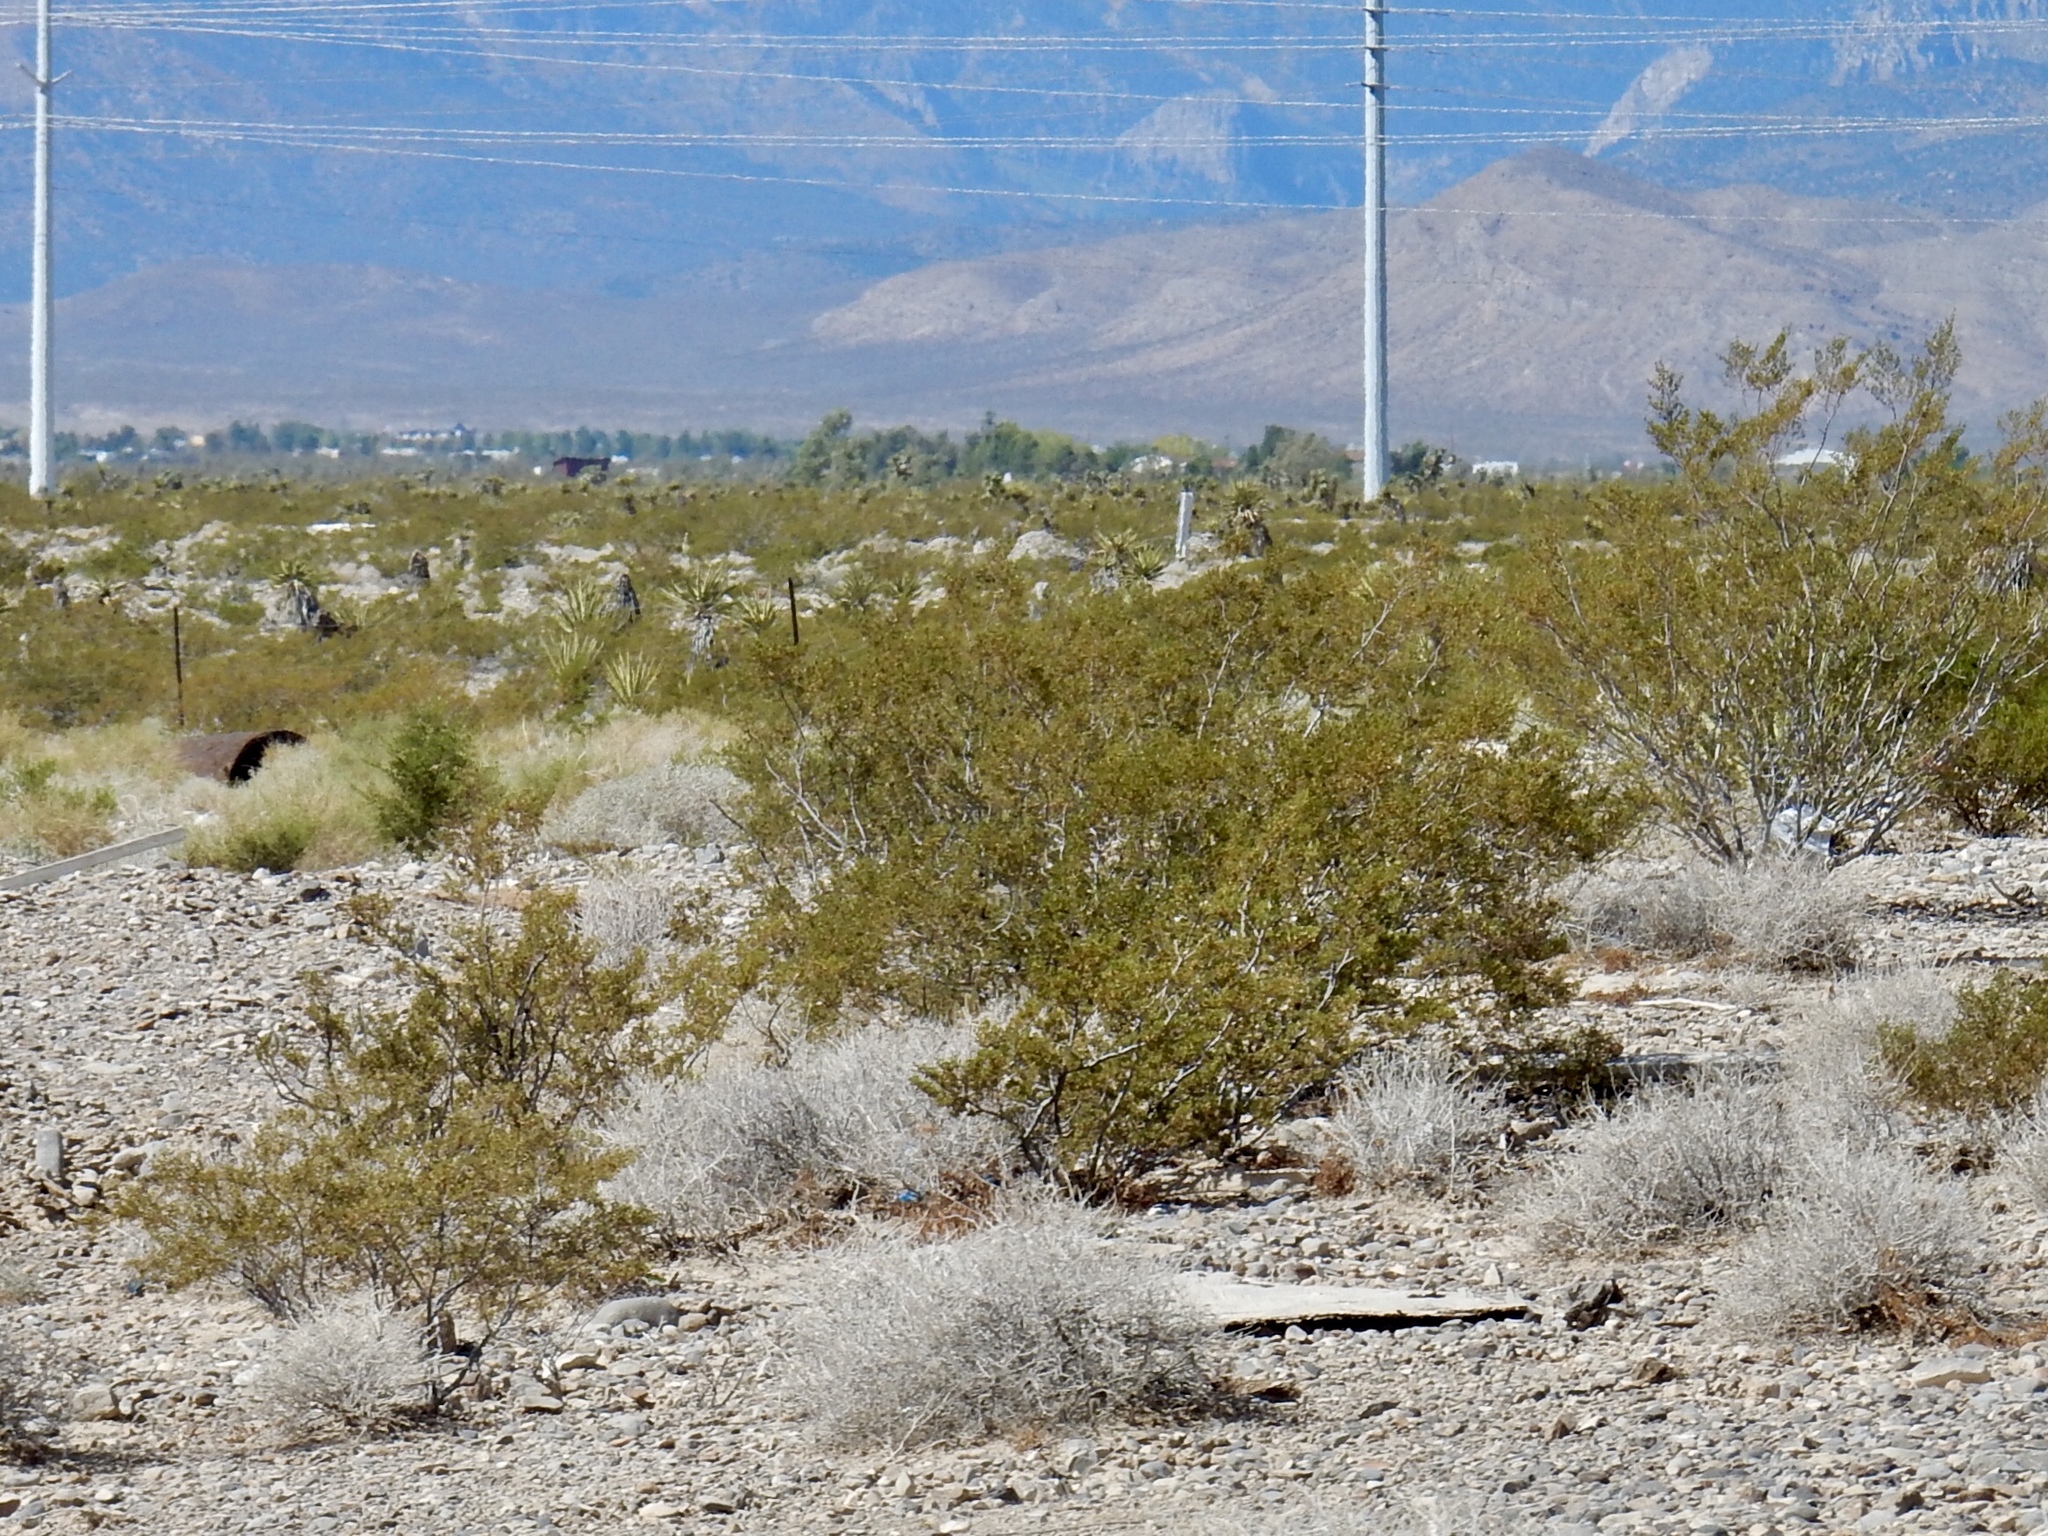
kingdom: Plantae
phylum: Tracheophyta
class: Magnoliopsida
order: Zygophyllales
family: Zygophyllaceae
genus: Larrea
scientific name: Larrea tridentata
